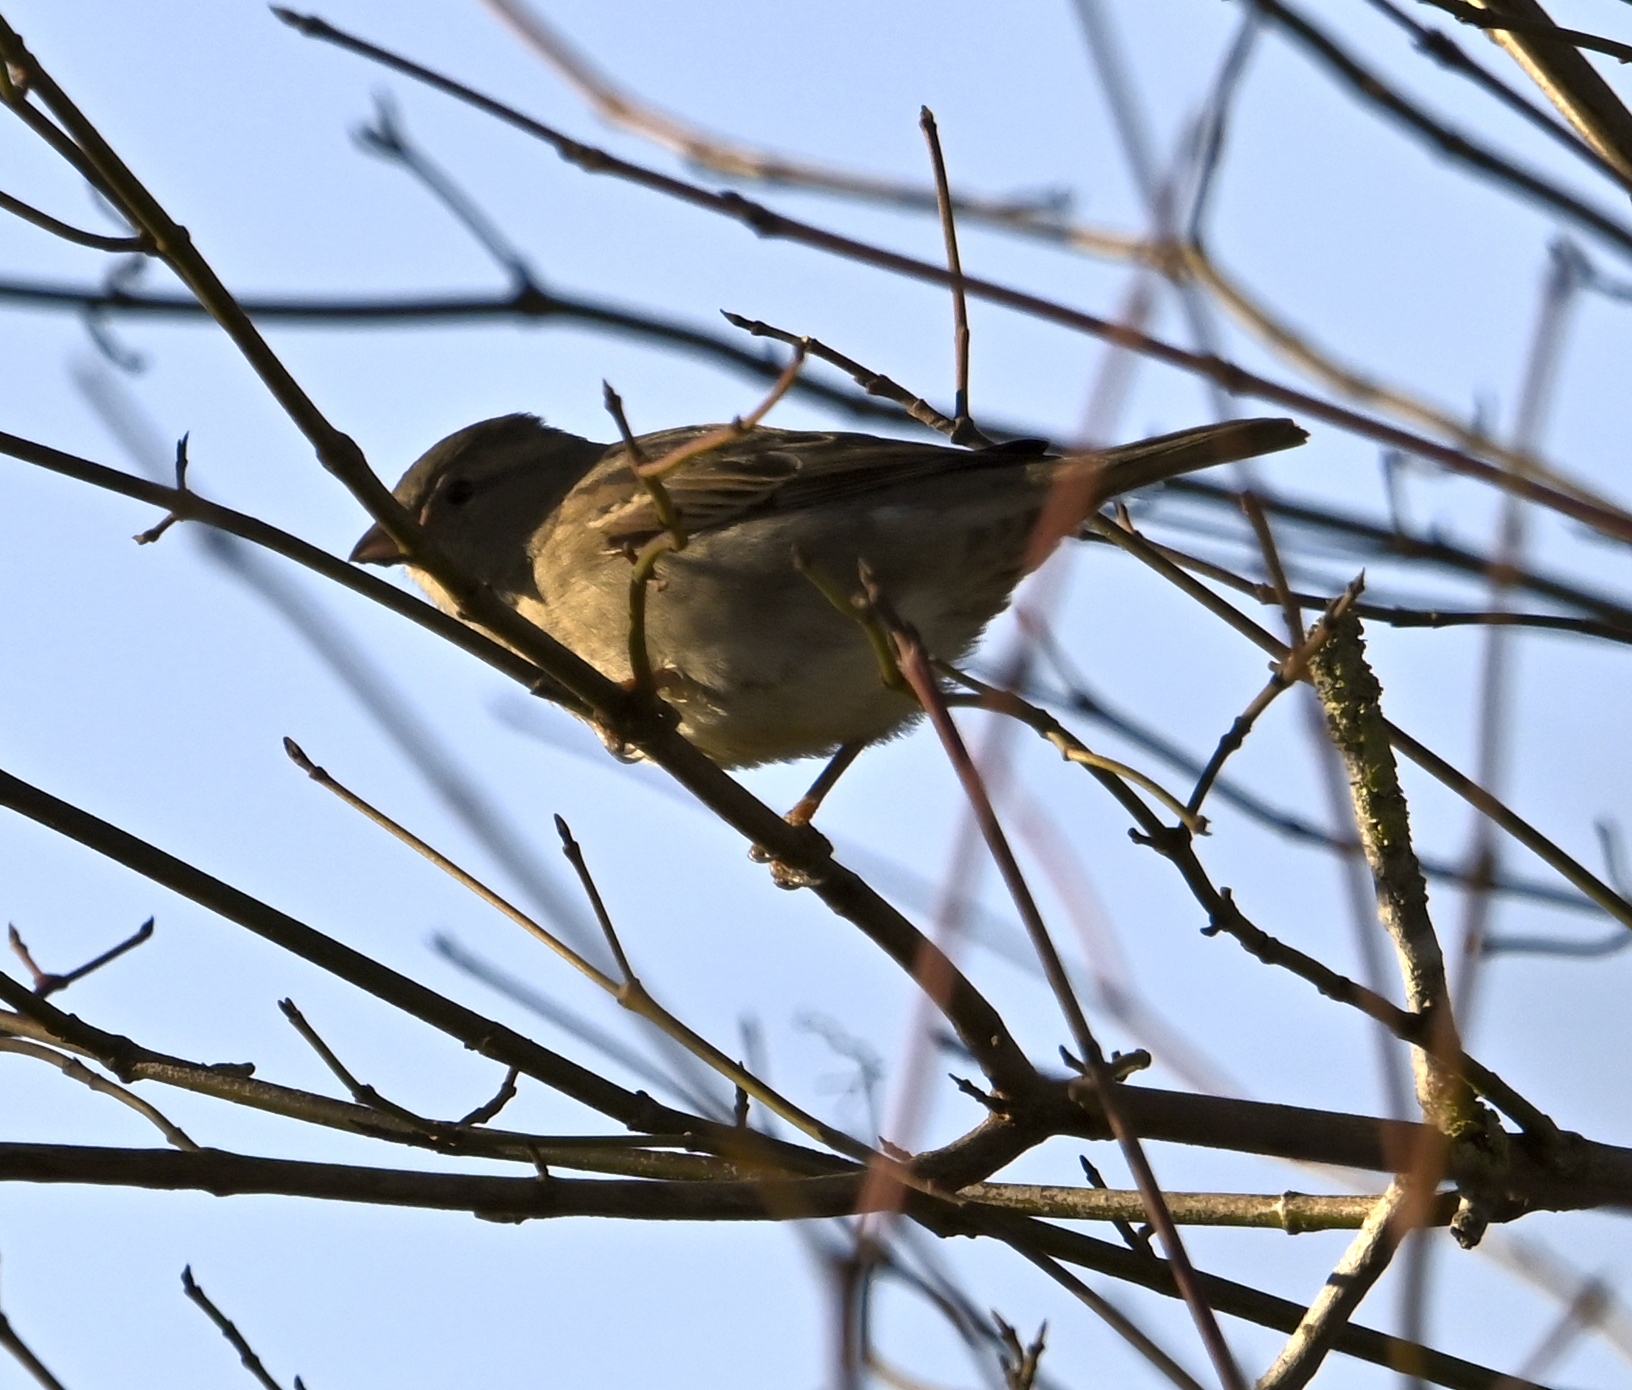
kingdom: Animalia
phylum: Chordata
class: Aves
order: Passeriformes
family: Passeridae
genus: Passer
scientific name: Passer domesticus
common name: House sparrow
